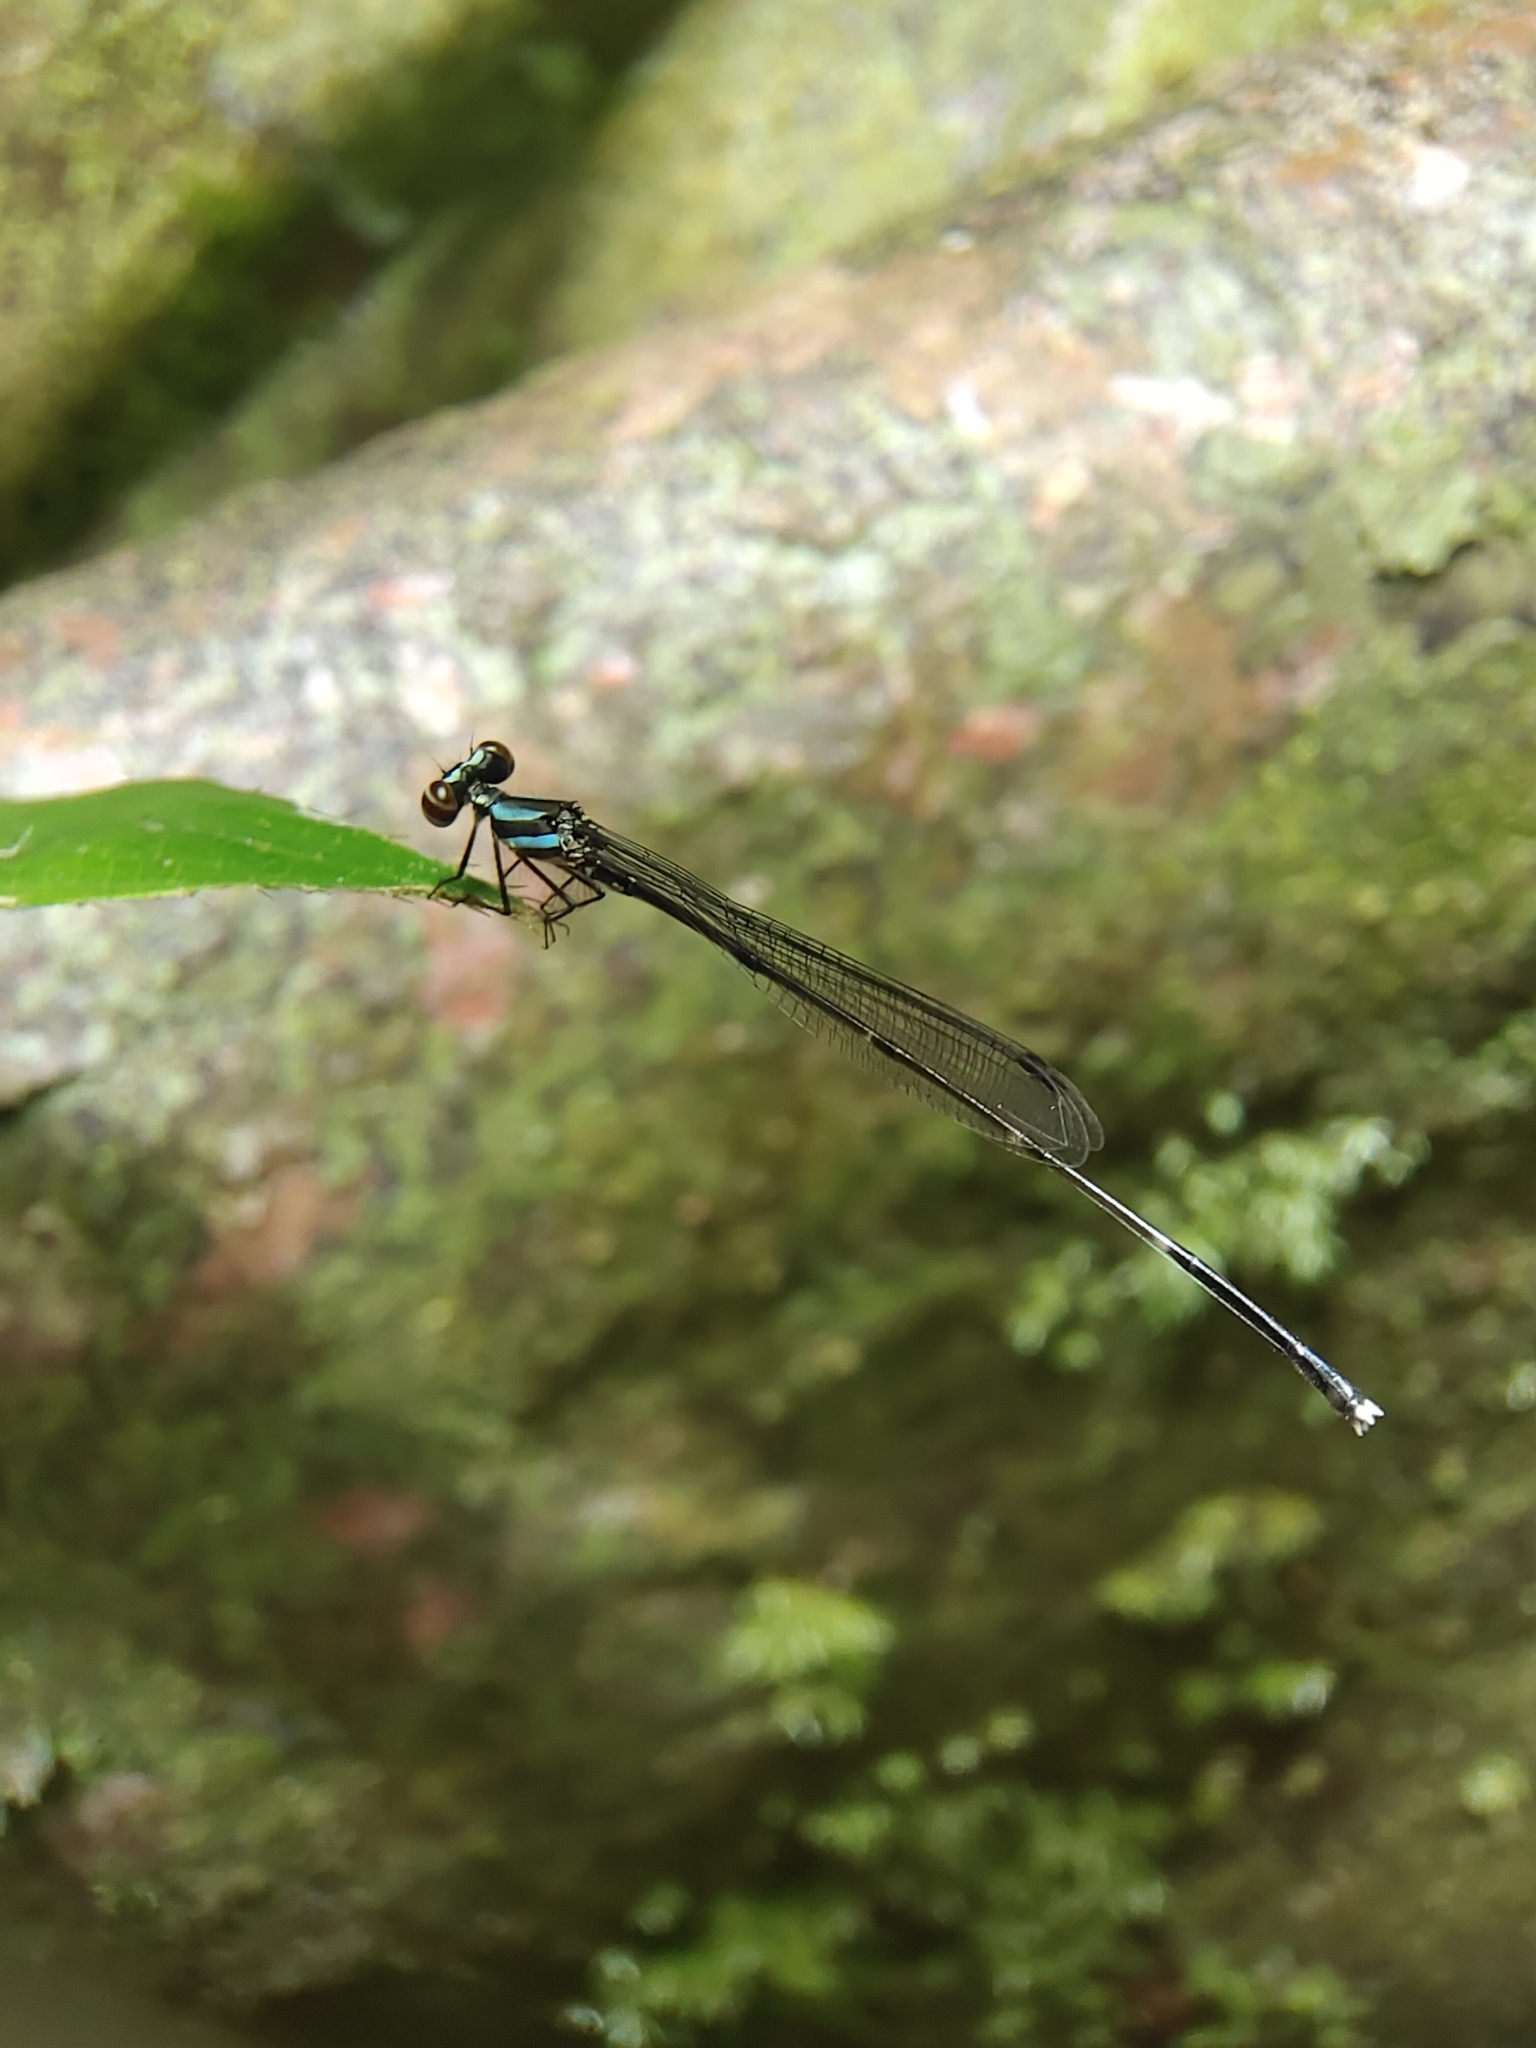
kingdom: Animalia
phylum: Arthropoda
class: Insecta
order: Odonata
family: Platycnemididae
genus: Prodasineura
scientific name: Prodasineura collaris
